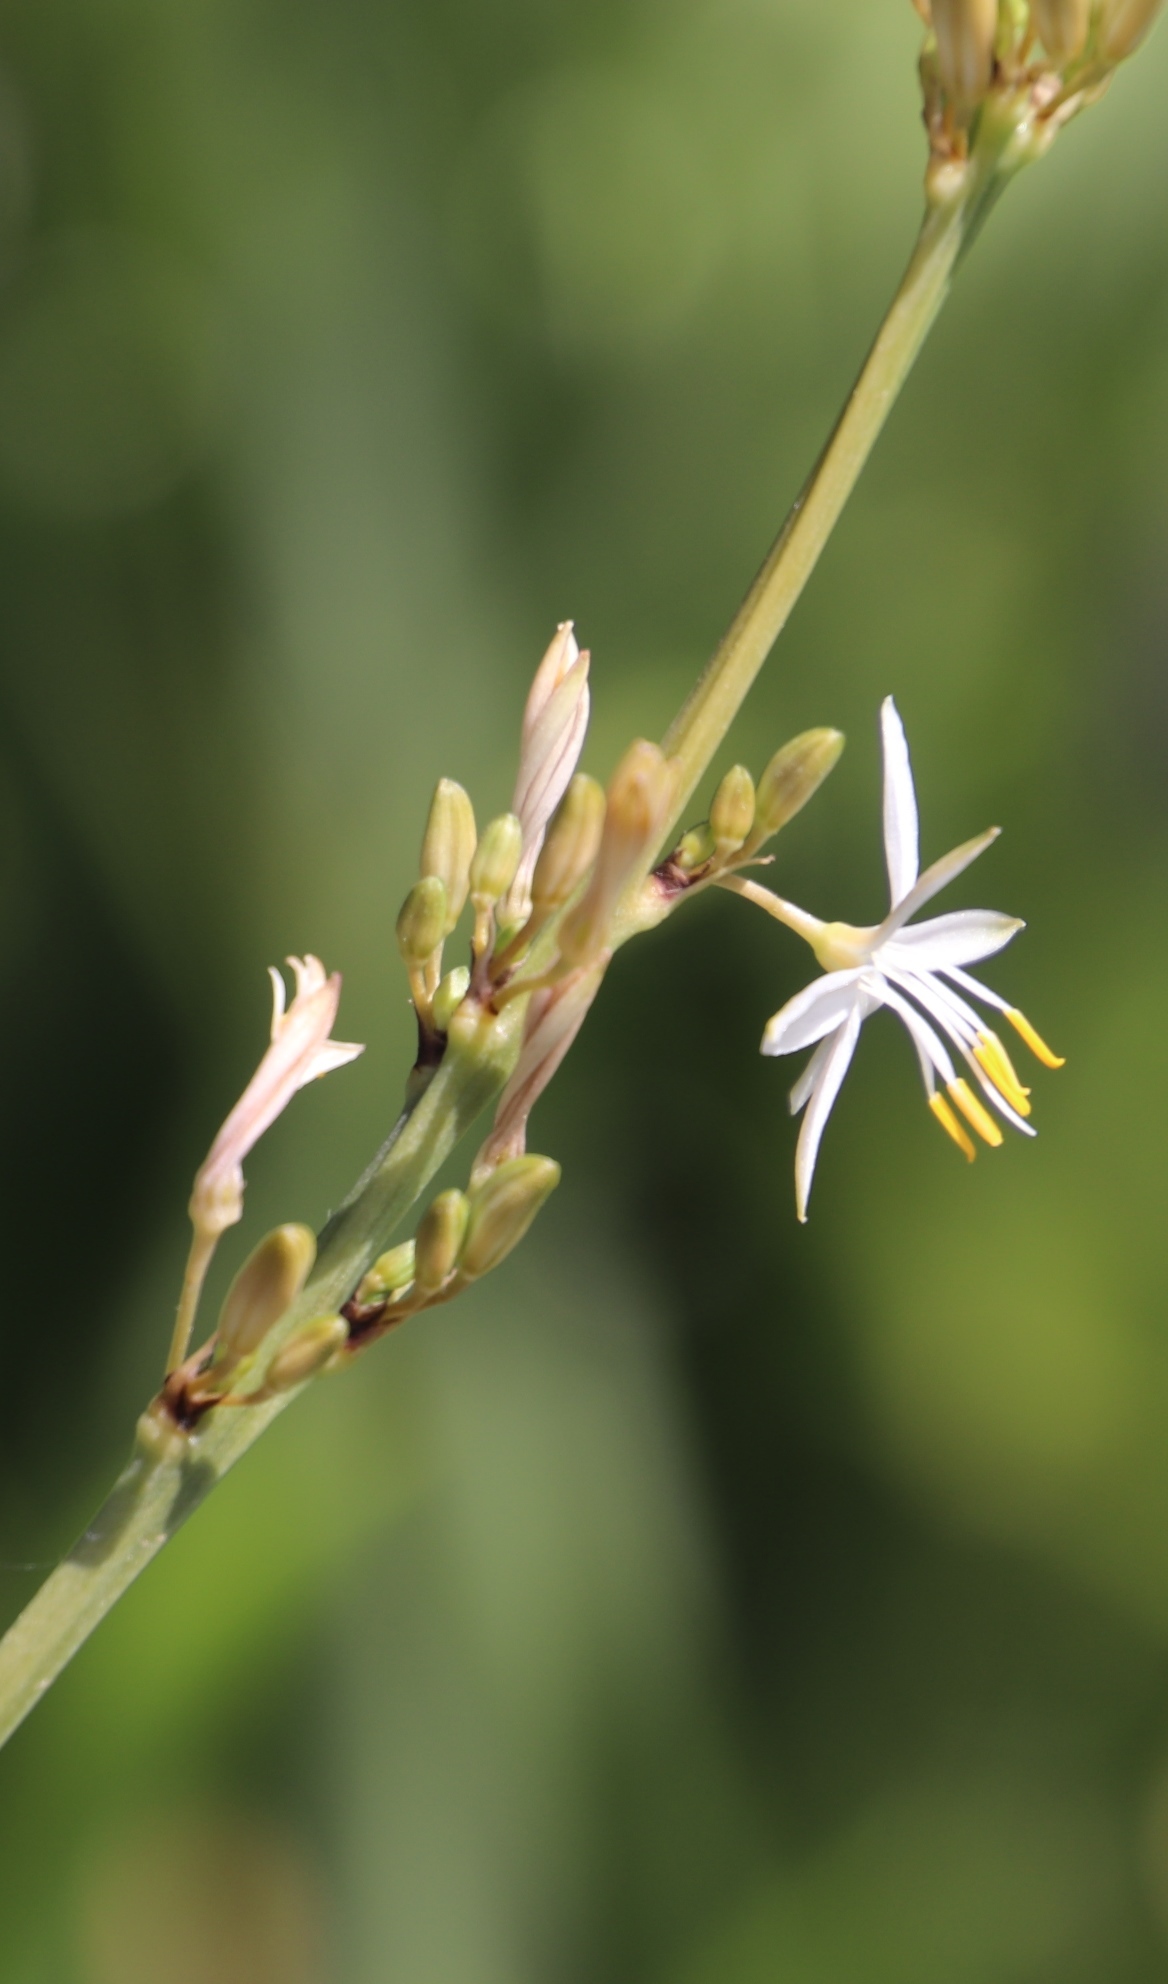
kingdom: Plantae
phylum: Tracheophyta
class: Liliopsida
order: Asparagales
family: Asparagaceae
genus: Chlorophytum
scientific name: Chlorophytum comosum
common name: Spider plant
